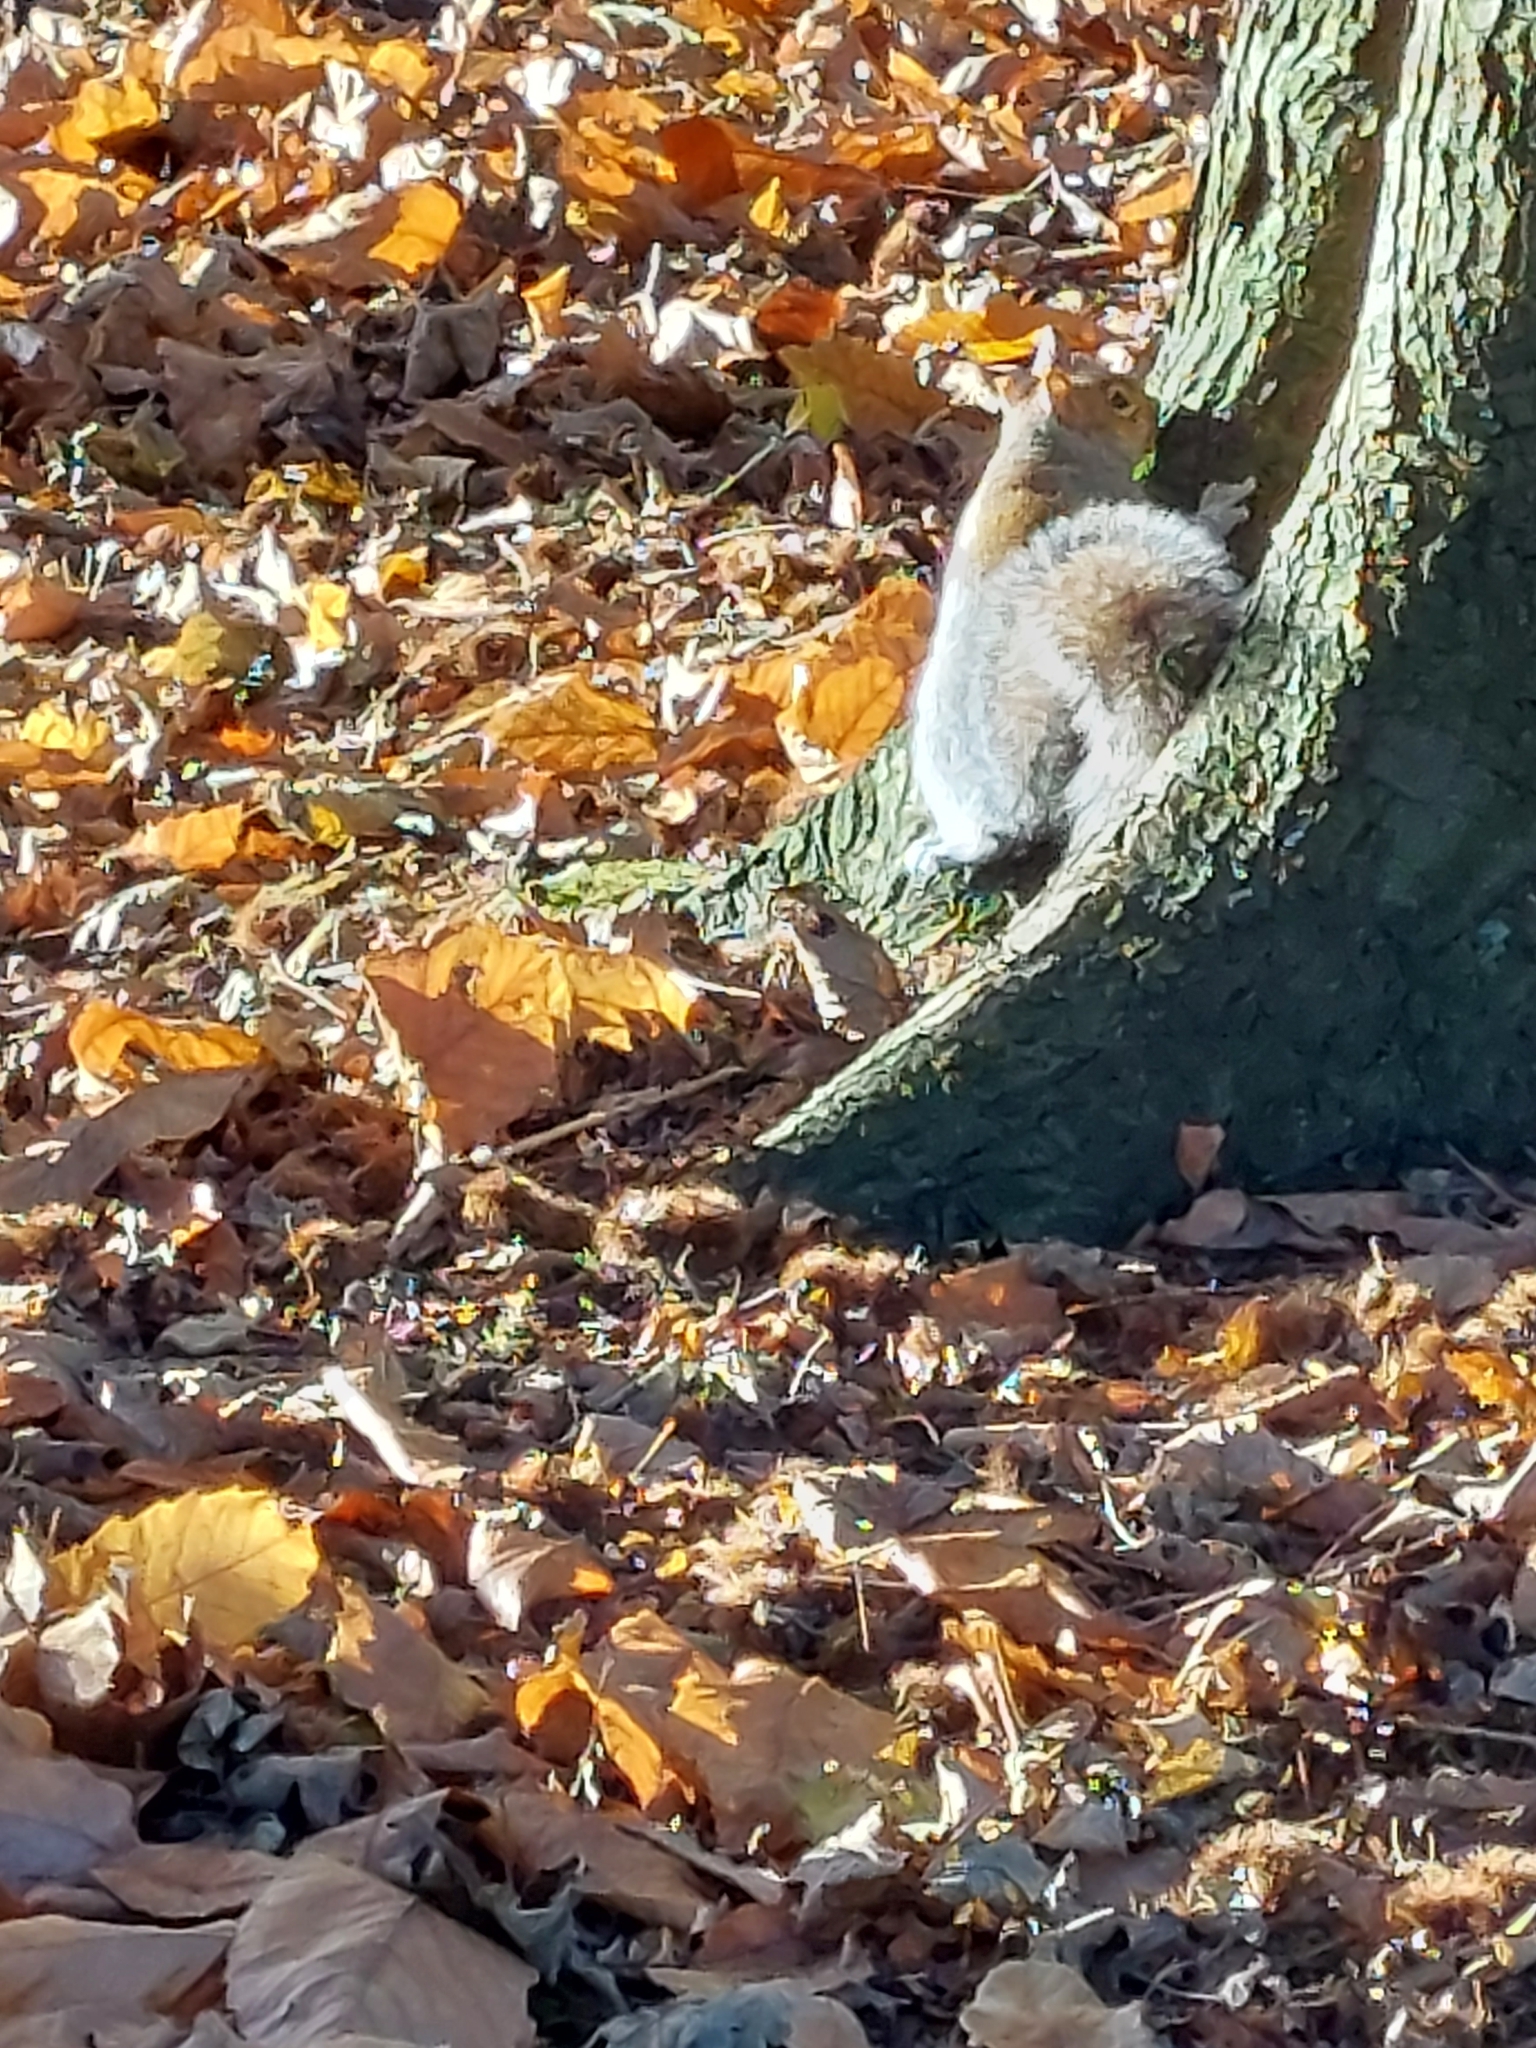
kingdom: Animalia
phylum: Chordata
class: Mammalia
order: Rodentia
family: Sciuridae
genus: Sciurus
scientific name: Sciurus carolinensis
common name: Eastern gray squirrel
